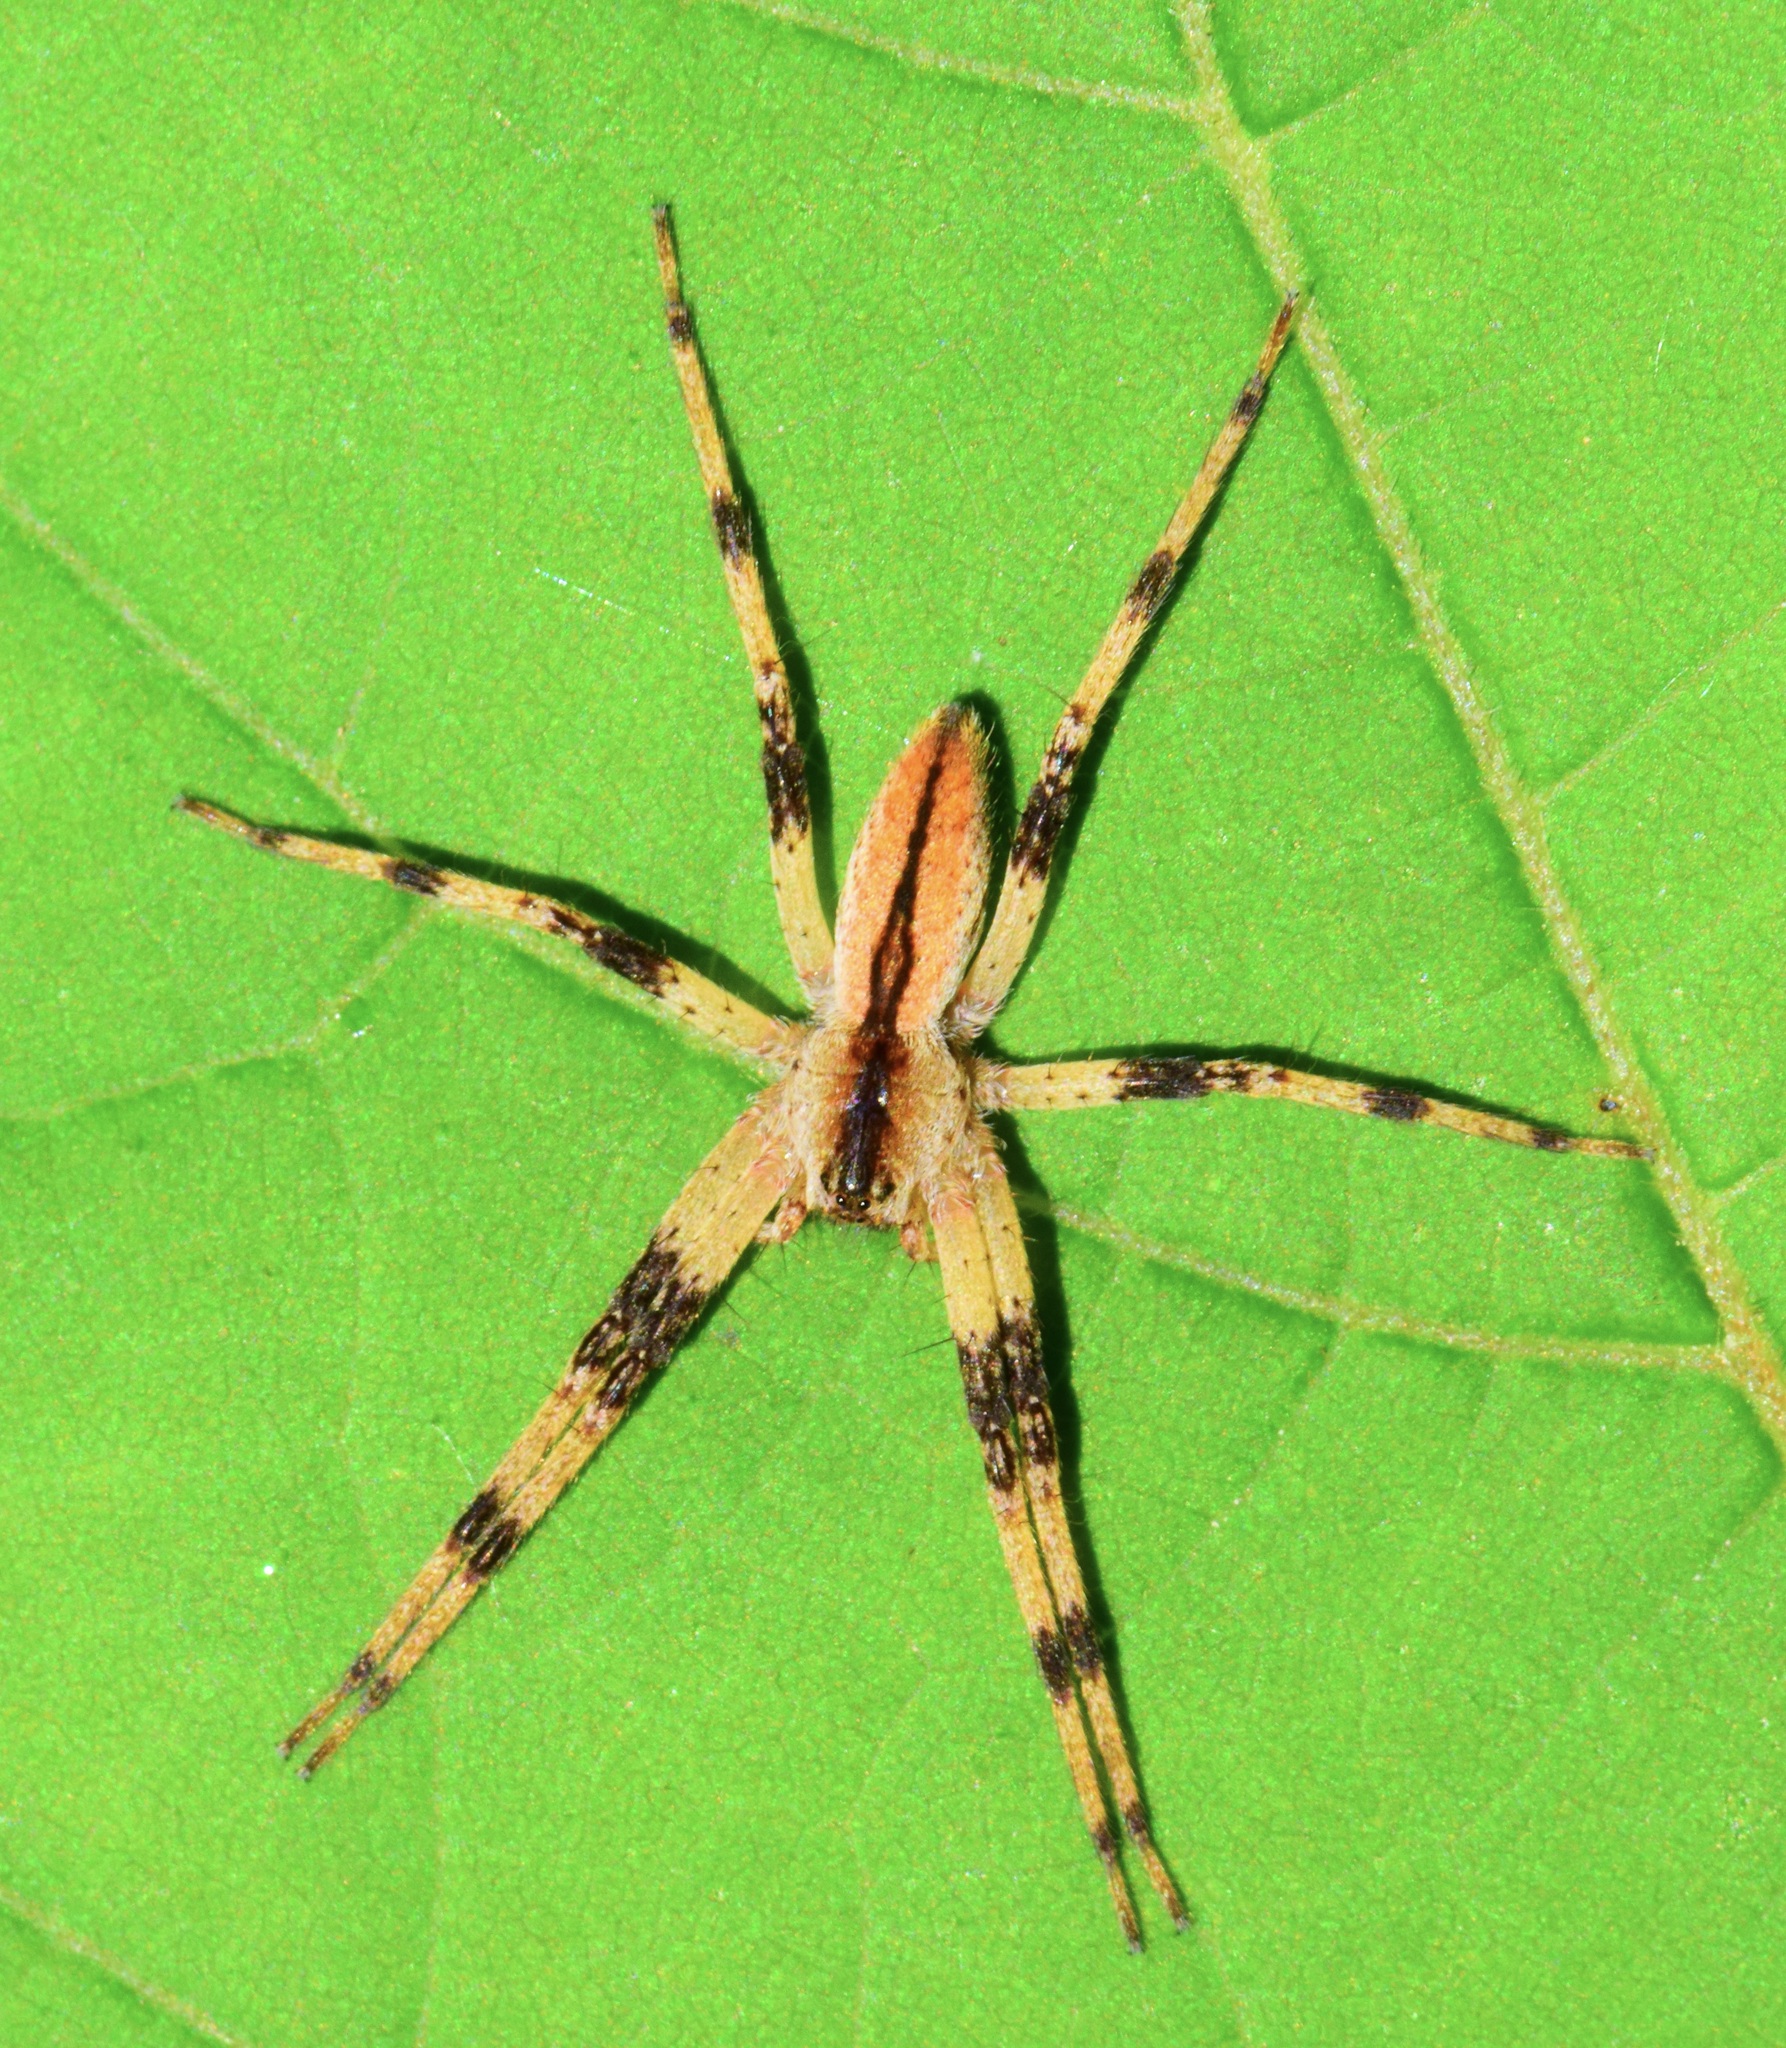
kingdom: Animalia
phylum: Arthropoda
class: Arachnida
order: Araneae
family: Pisauridae
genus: Pisaurina
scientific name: Pisaurina mira
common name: American nursery web spider
